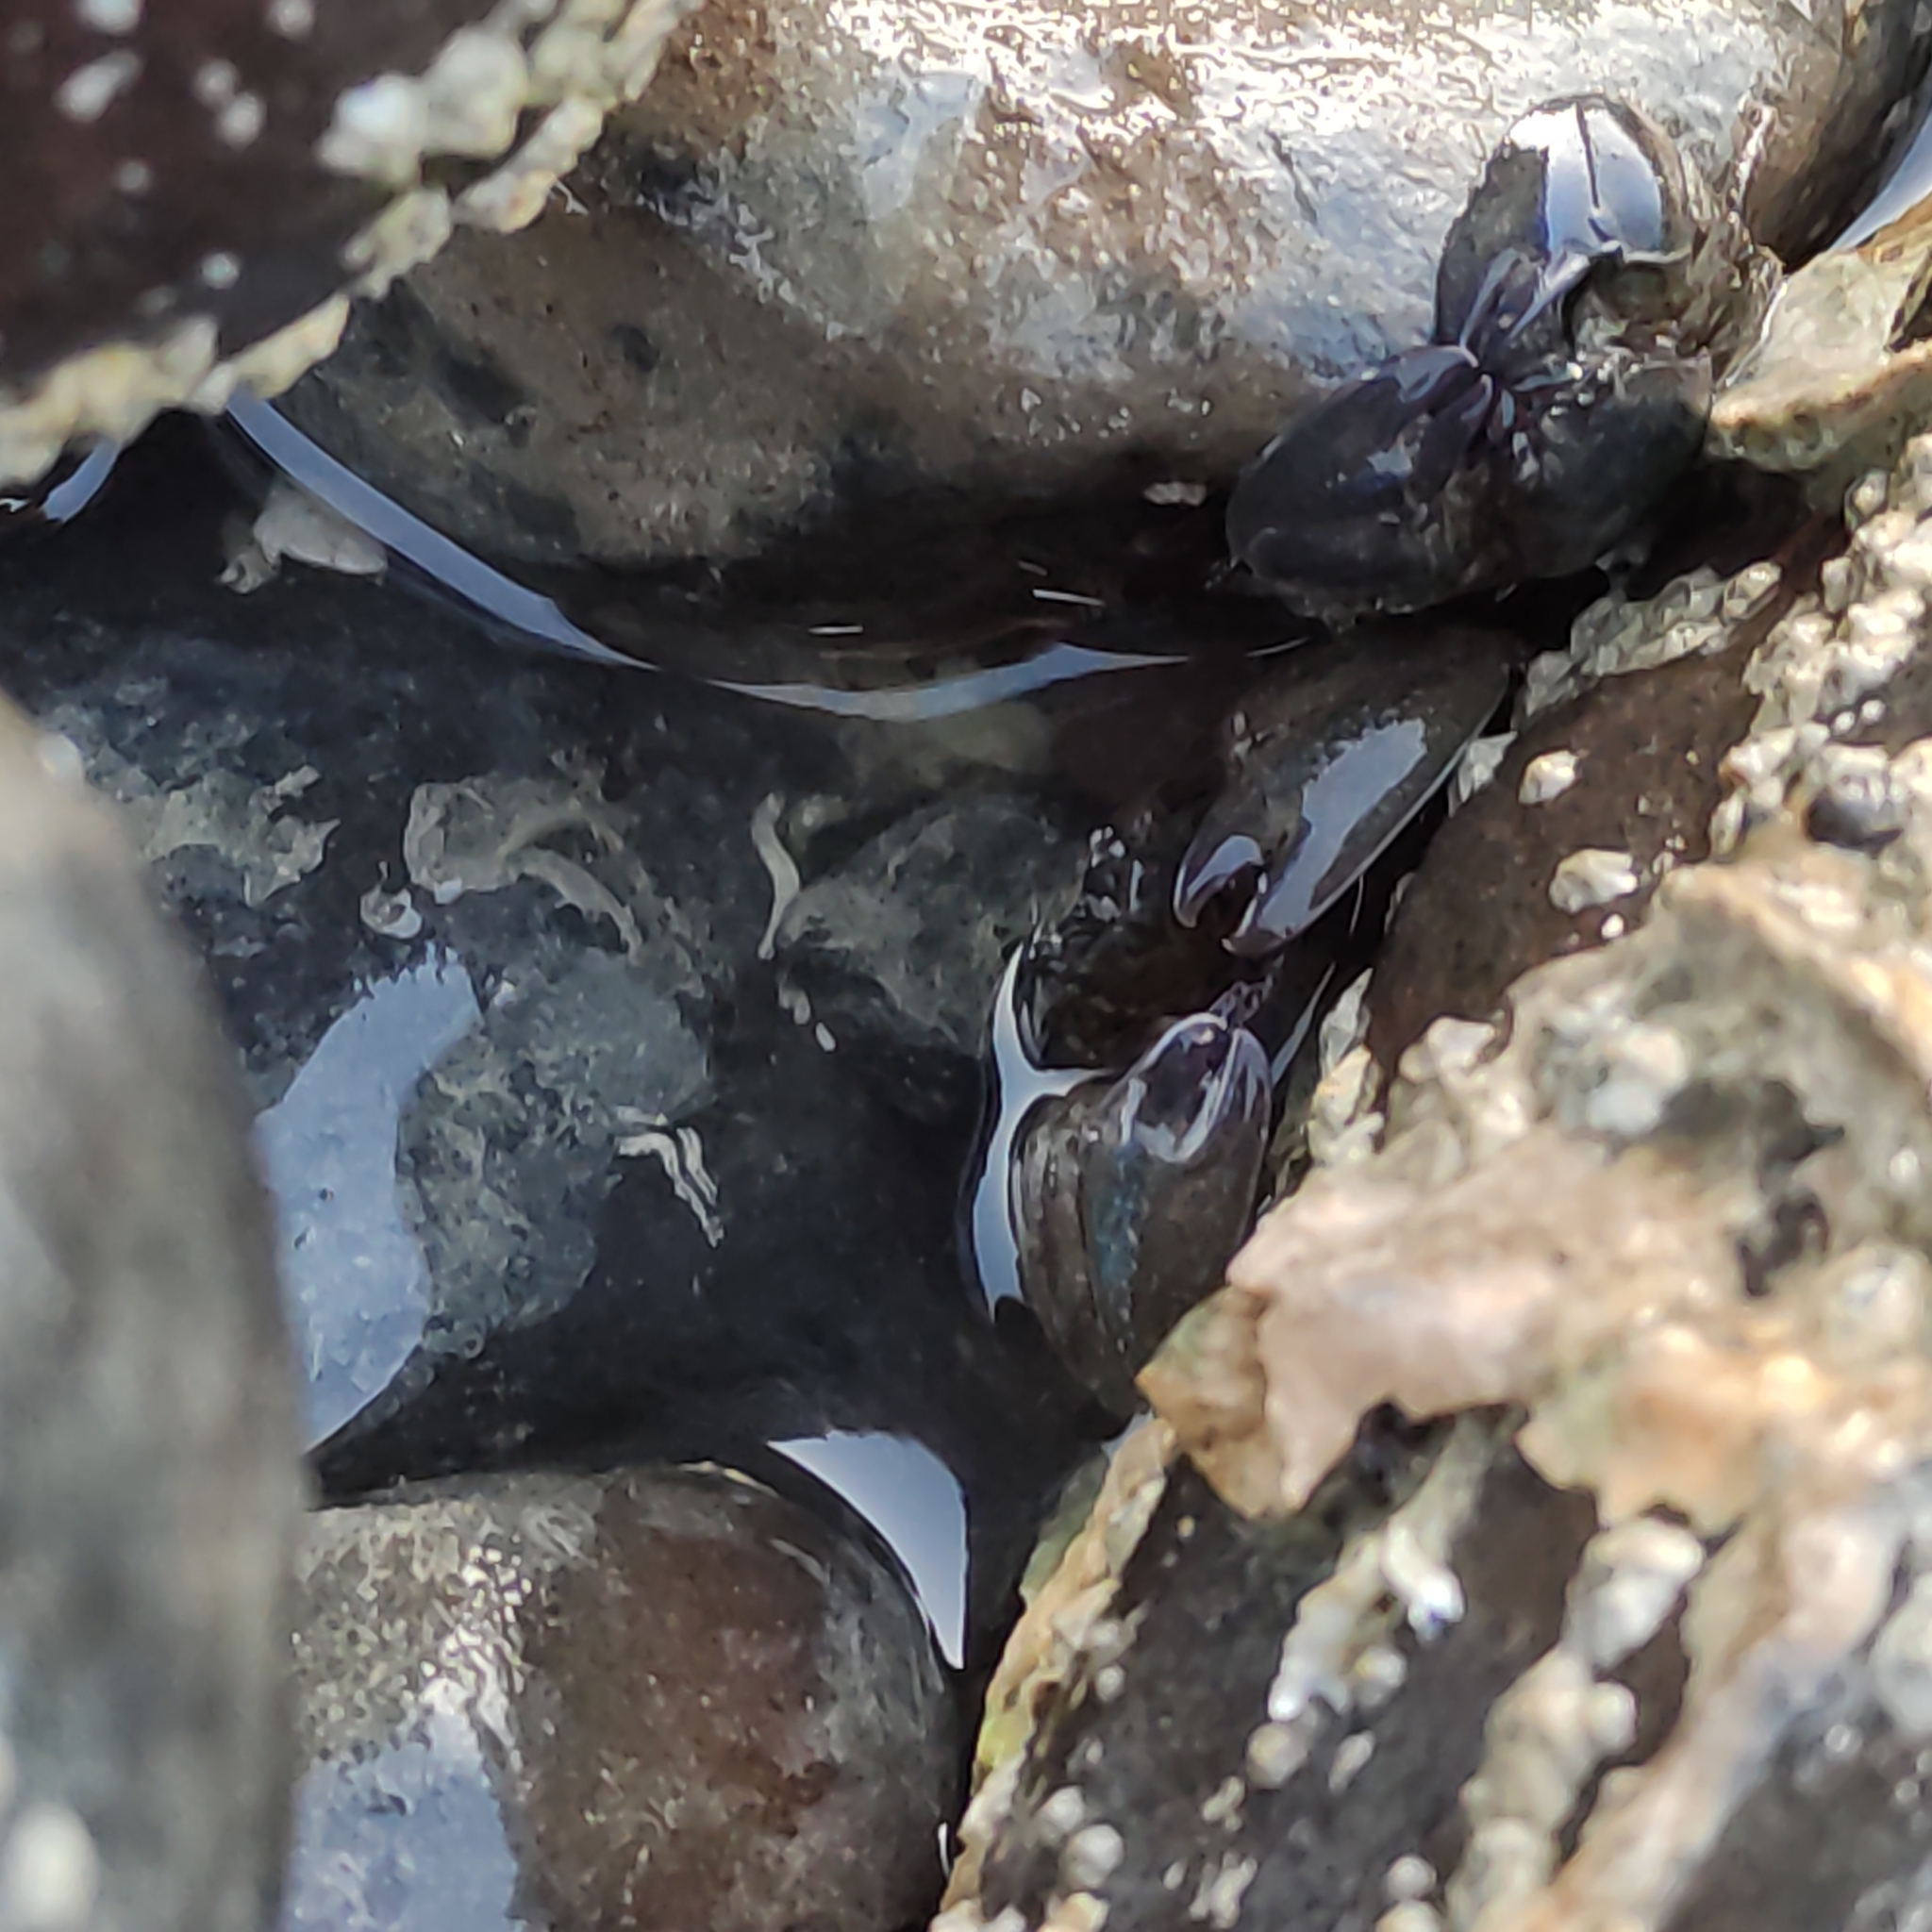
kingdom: Animalia
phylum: Arthropoda
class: Malacostraca
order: Decapoda
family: Porcellanidae
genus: Petrolisthes
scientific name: Petrolisthes elongatus
